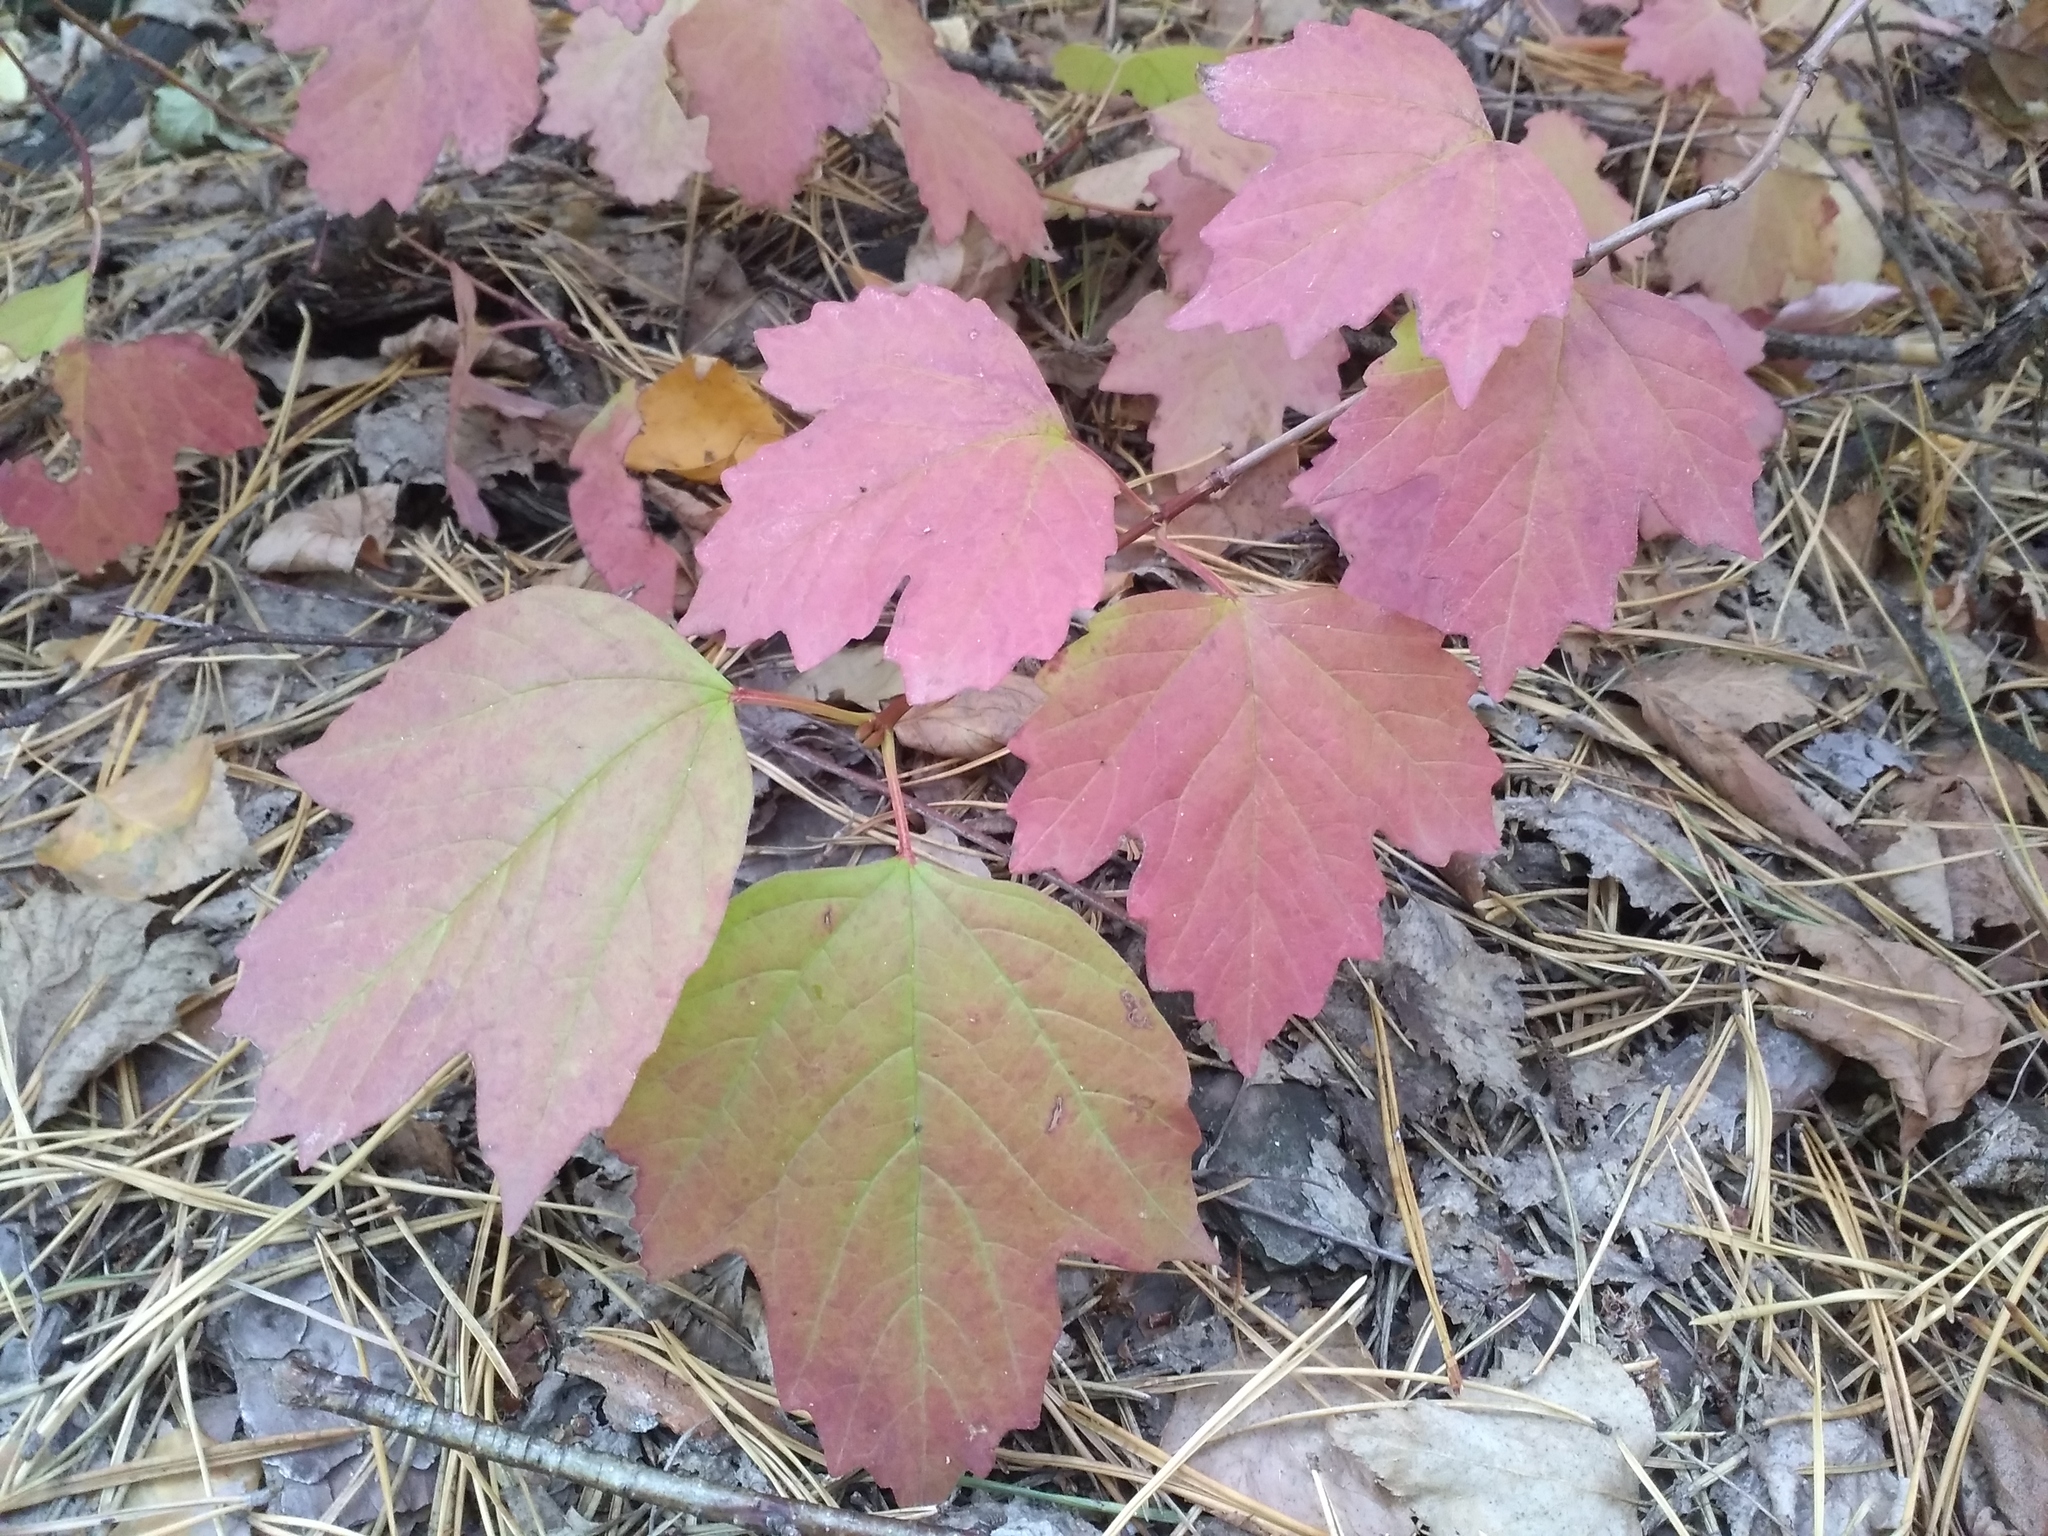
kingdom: Plantae
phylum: Tracheophyta
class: Magnoliopsida
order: Dipsacales
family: Viburnaceae
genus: Viburnum
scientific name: Viburnum opulus
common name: Guelder-rose
